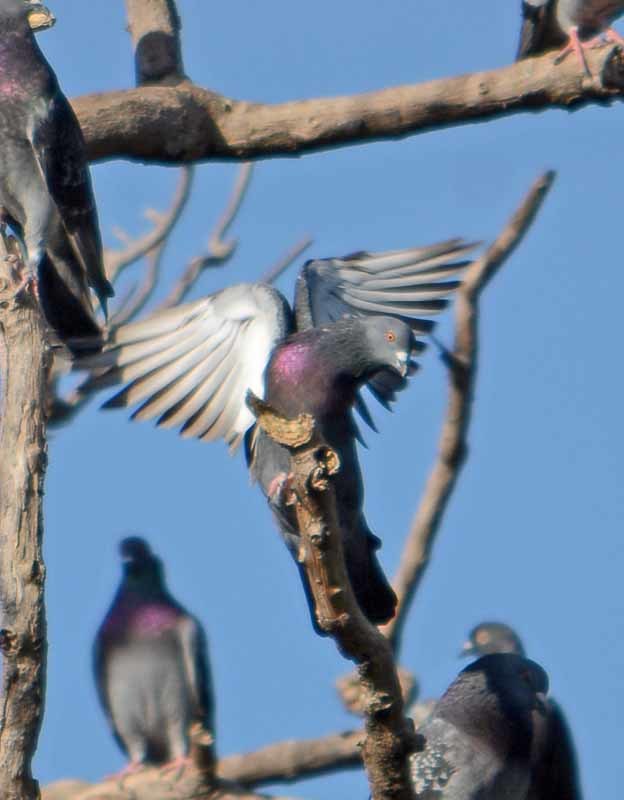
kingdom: Animalia
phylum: Chordata
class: Aves
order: Columbiformes
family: Columbidae
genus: Columba
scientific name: Columba livia
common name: Rock pigeon
